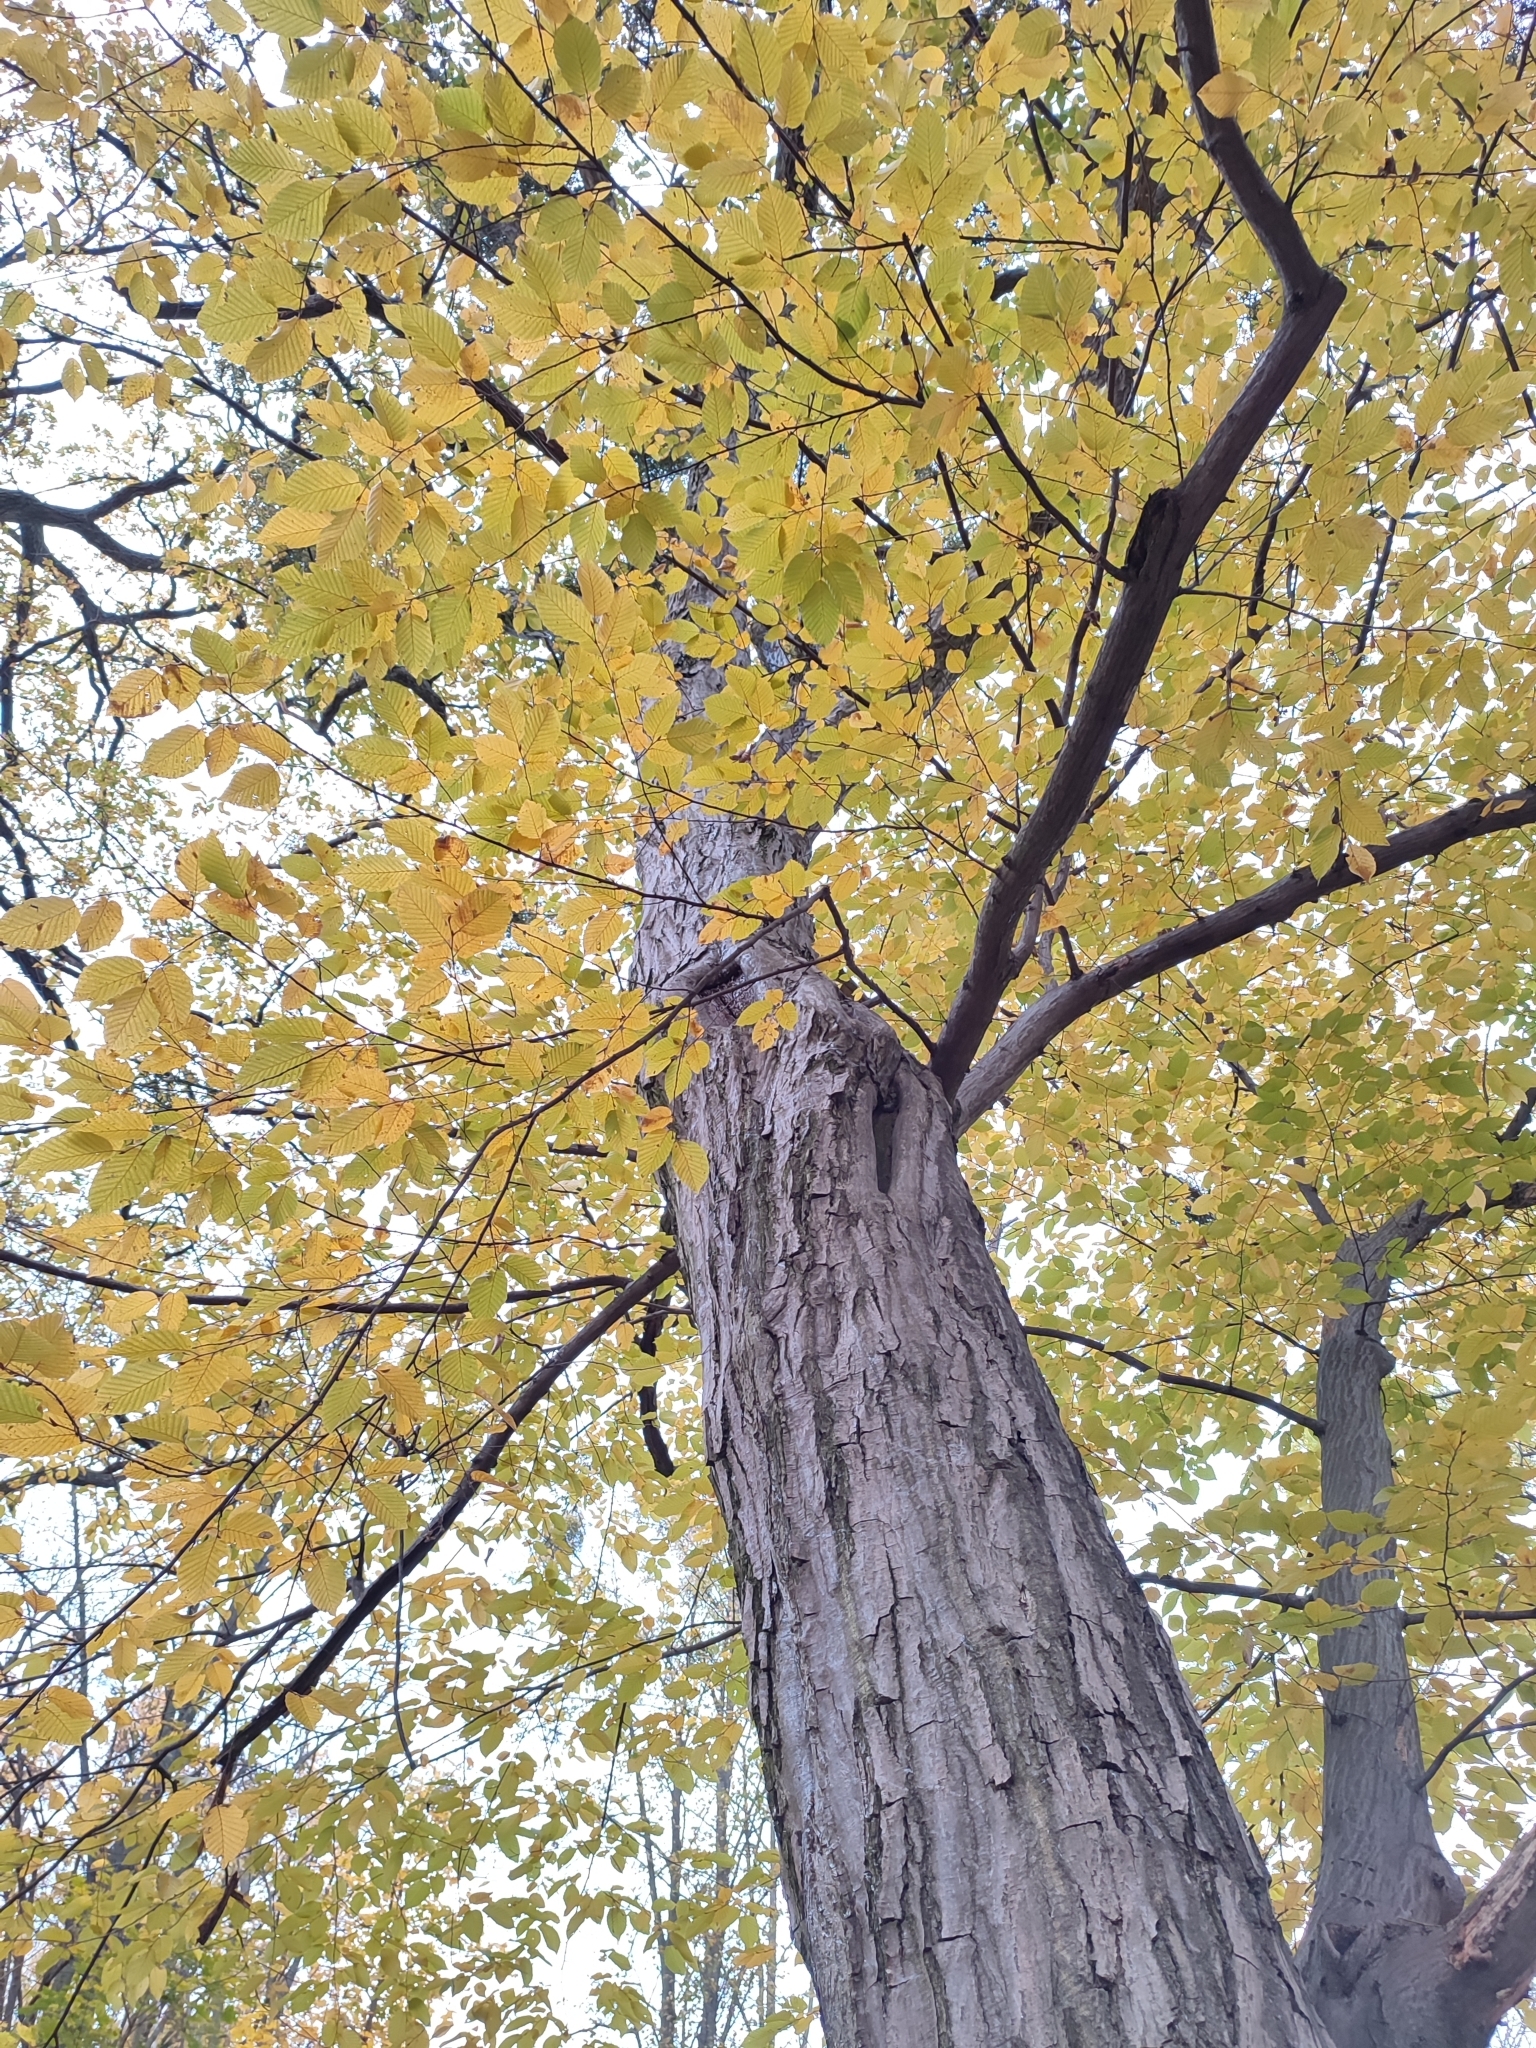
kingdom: Plantae
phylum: Tracheophyta
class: Magnoliopsida
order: Fagales
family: Betulaceae
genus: Carpinus
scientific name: Carpinus betulus
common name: Hornbeam
